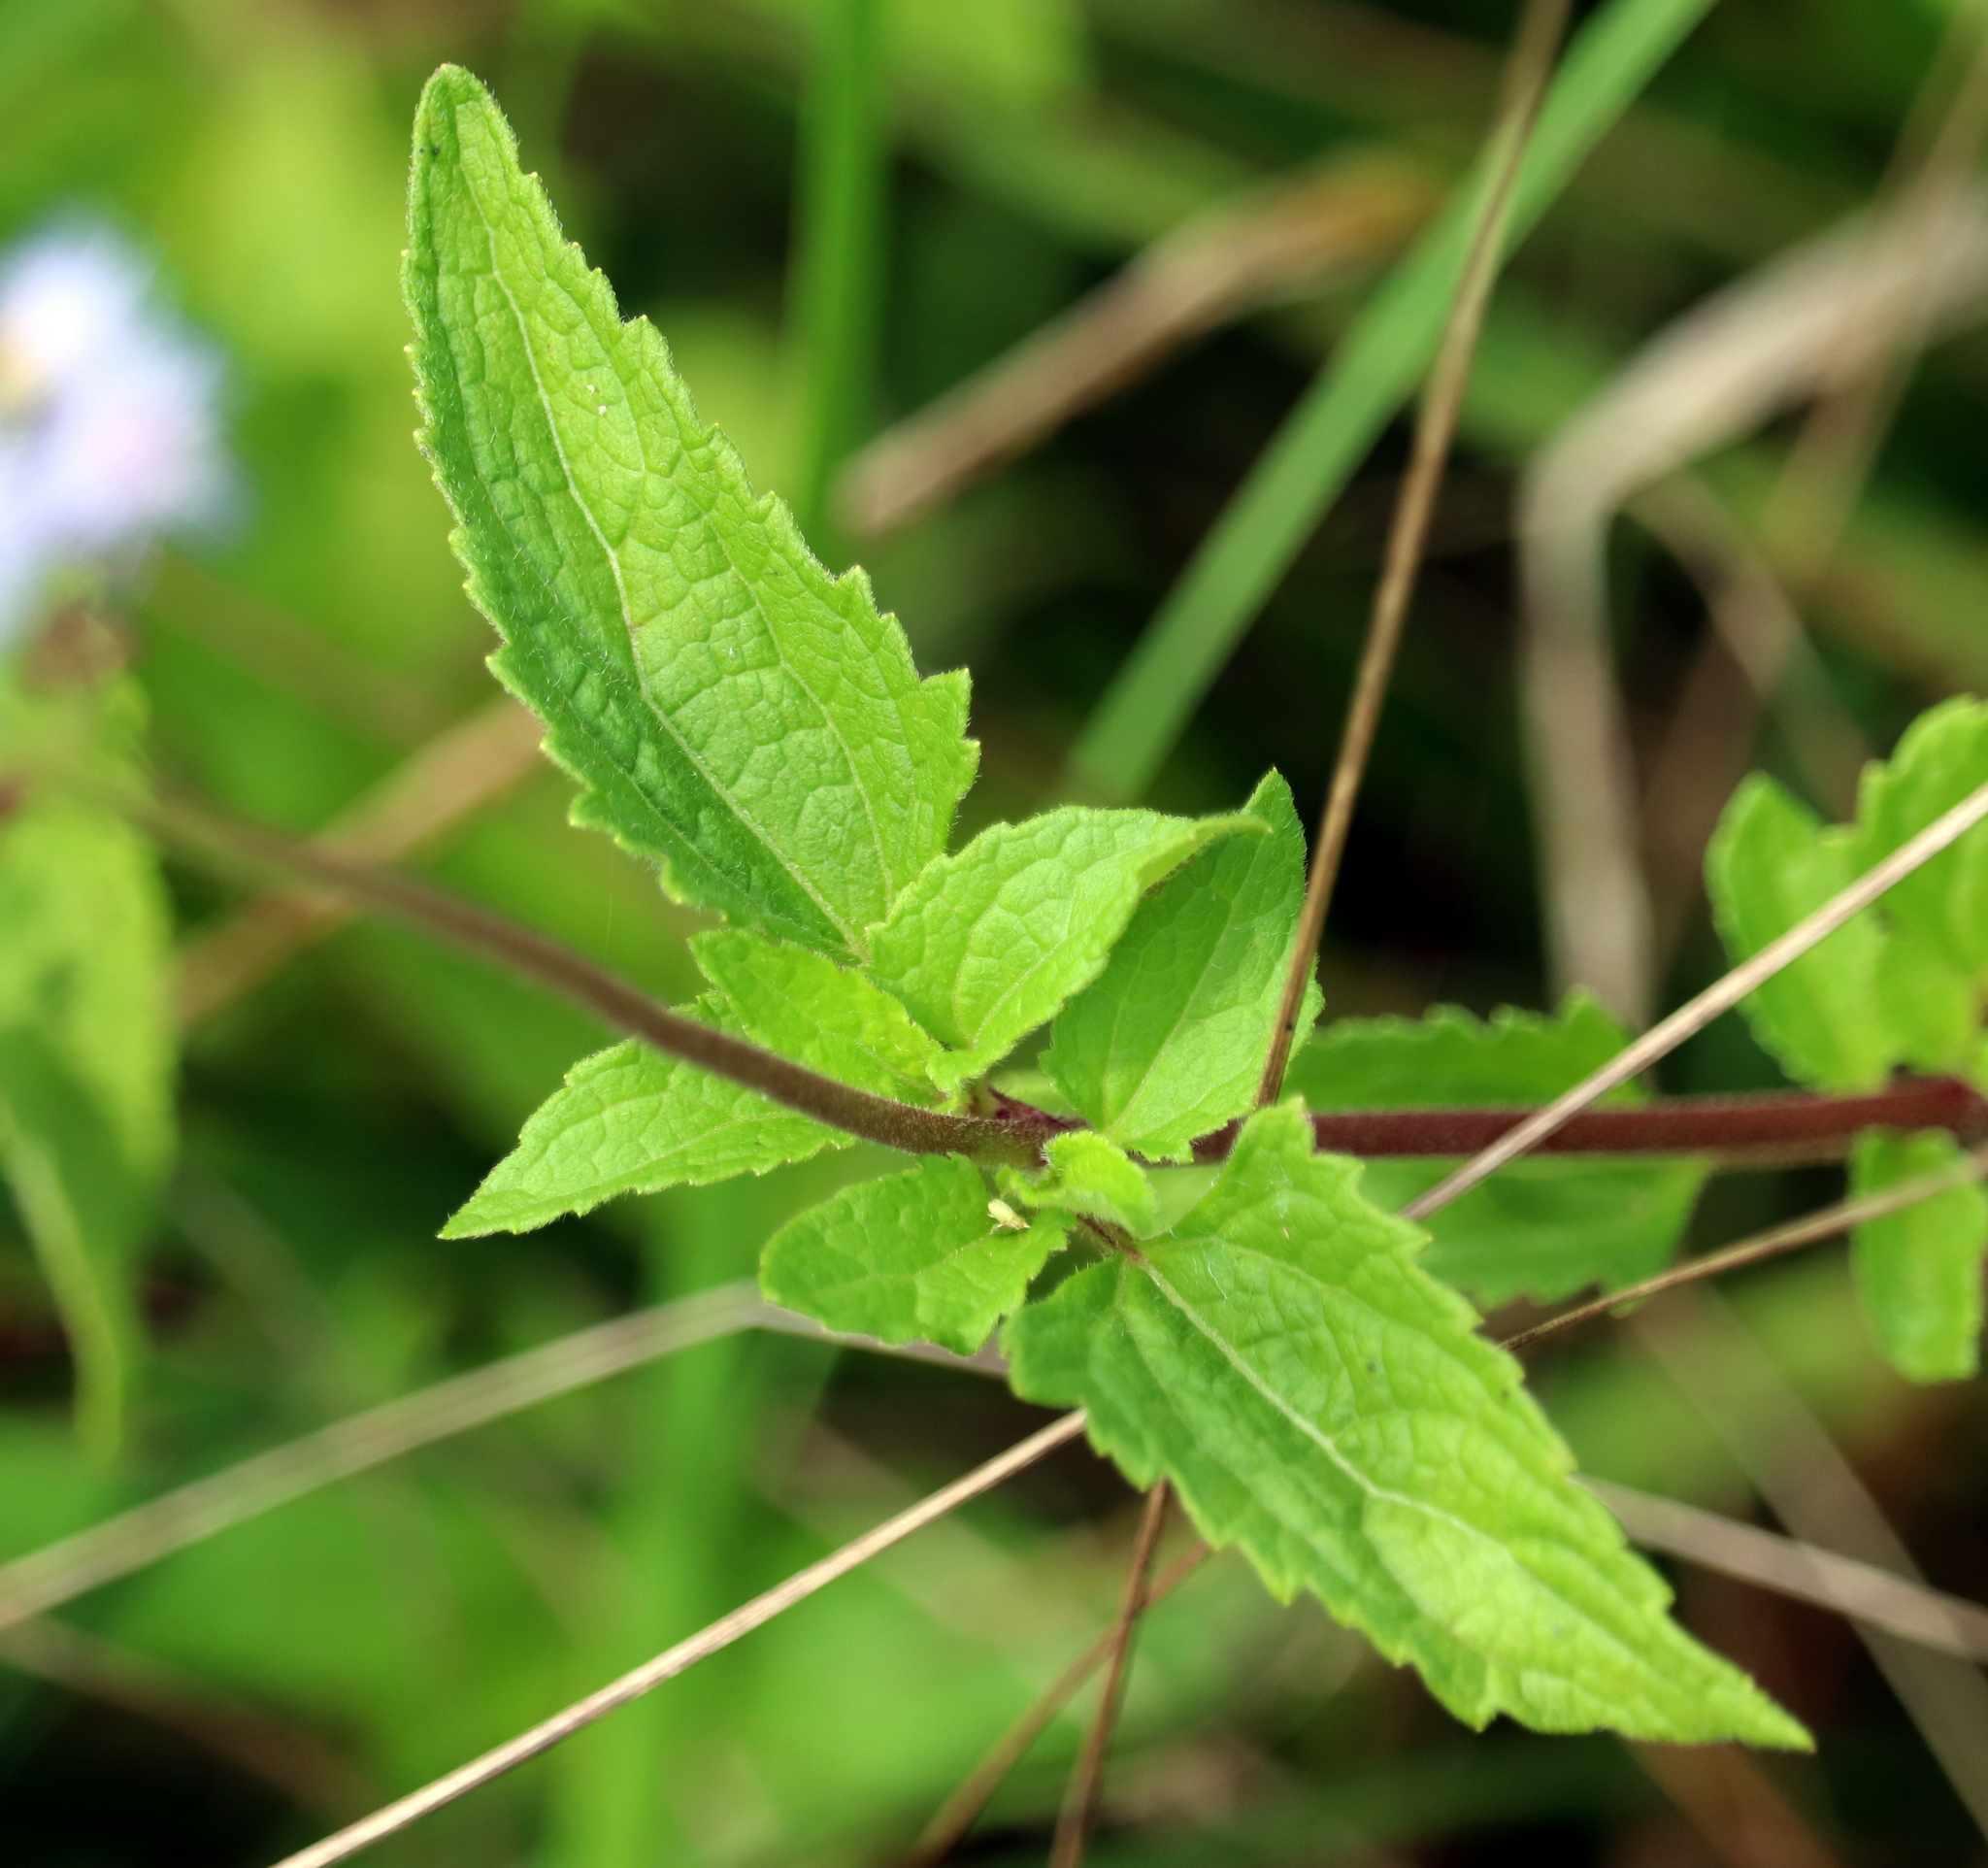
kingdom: Plantae
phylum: Tracheophyta
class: Magnoliopsida
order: Asterales
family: Asteraceae
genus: Conoclinium
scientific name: Conoclinium coelestinum
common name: Blue mistflower
